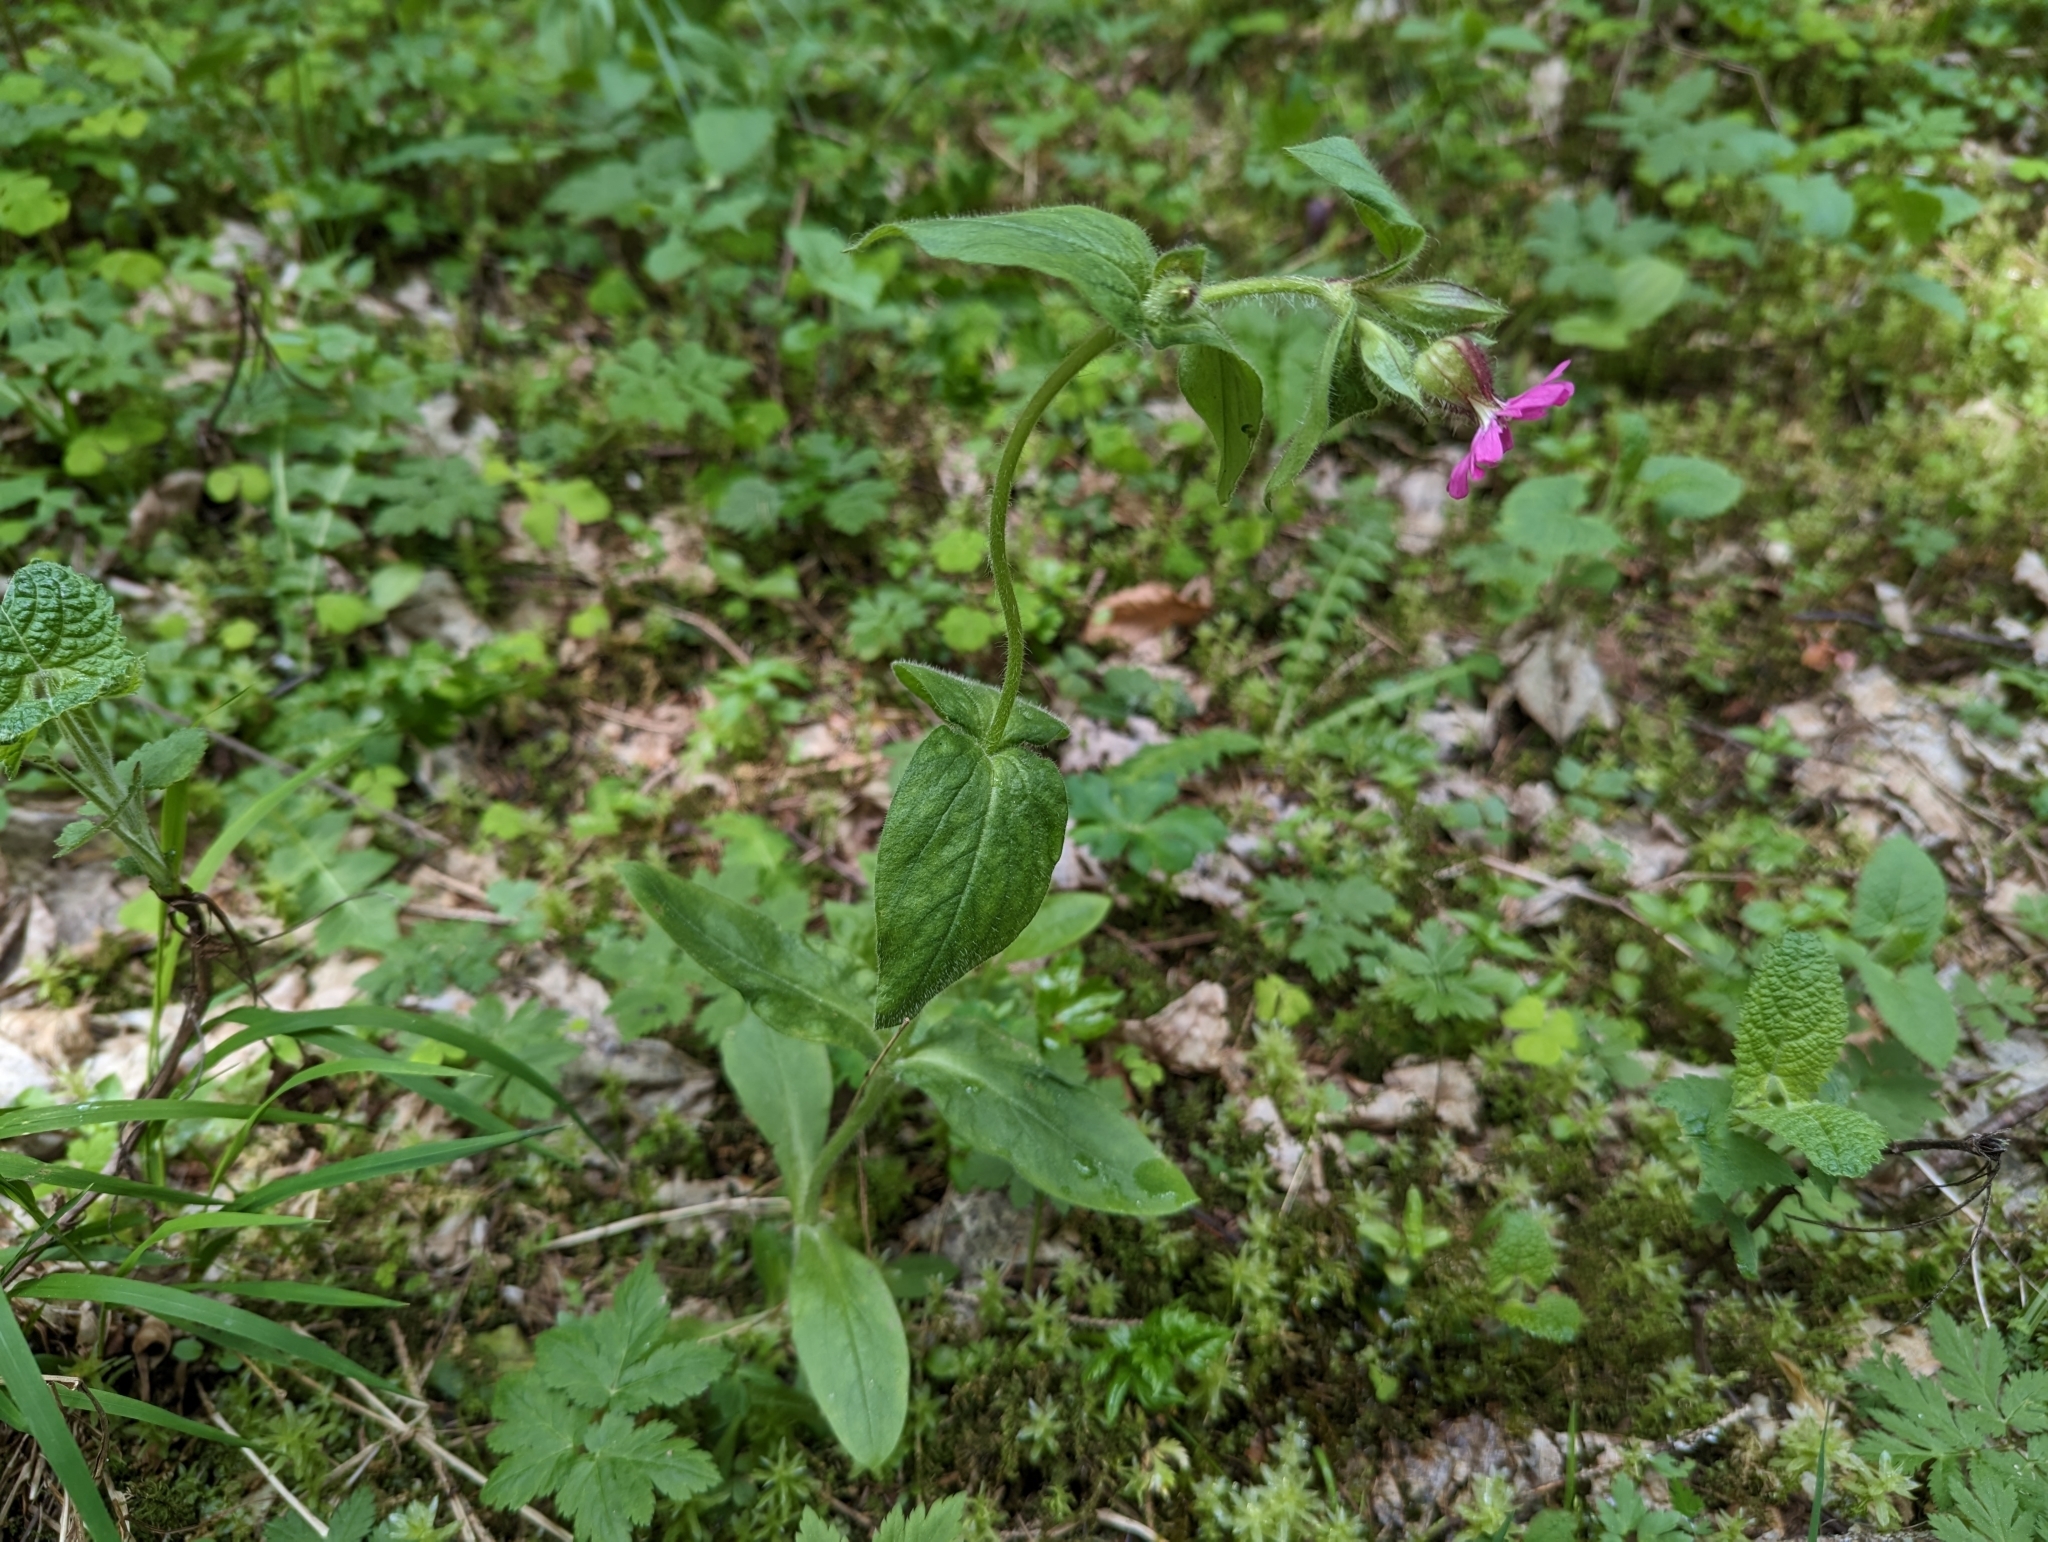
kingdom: Plantae
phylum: Tracheophyta
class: Magnoliopsida
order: Caryophyllales
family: Caryophyllaceae
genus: Silene
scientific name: Silene dioica
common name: Red campion
